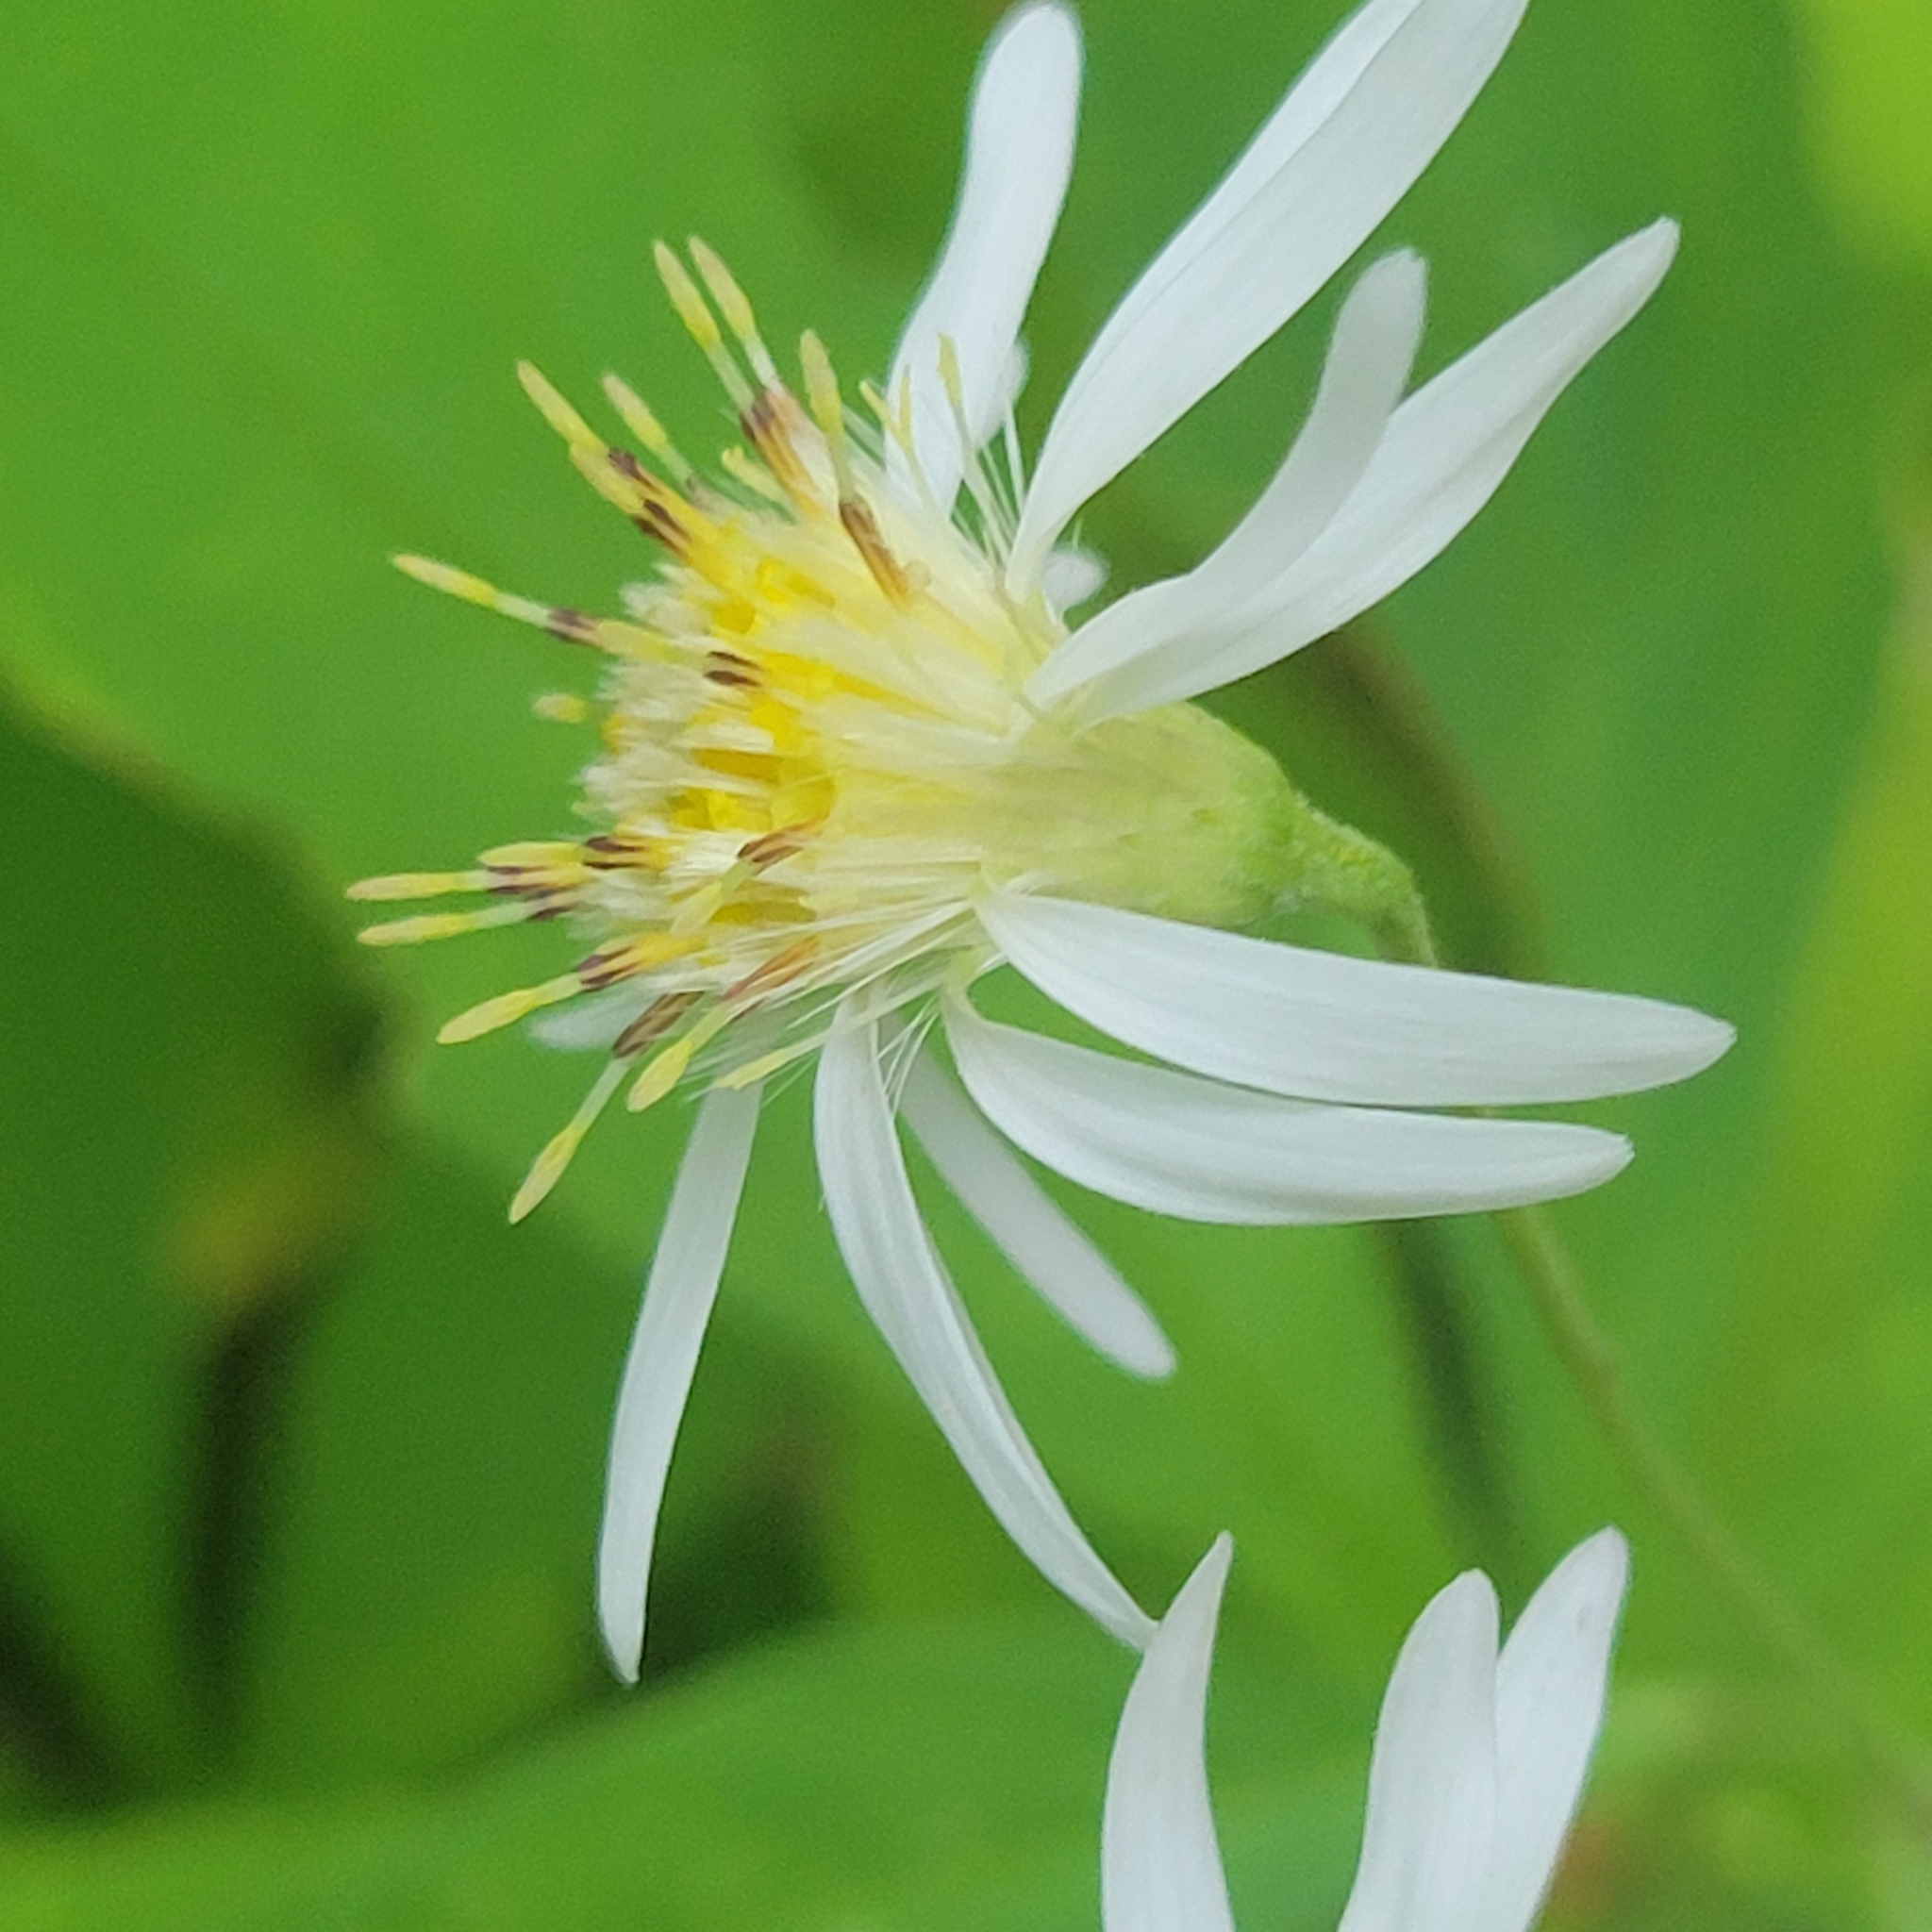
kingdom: Plantae
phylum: Tracheophyta
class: Magnoliopsida
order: Asterales
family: Asteraceae
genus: Oclemena
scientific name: Oclemena acuminata
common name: Mountain aster
